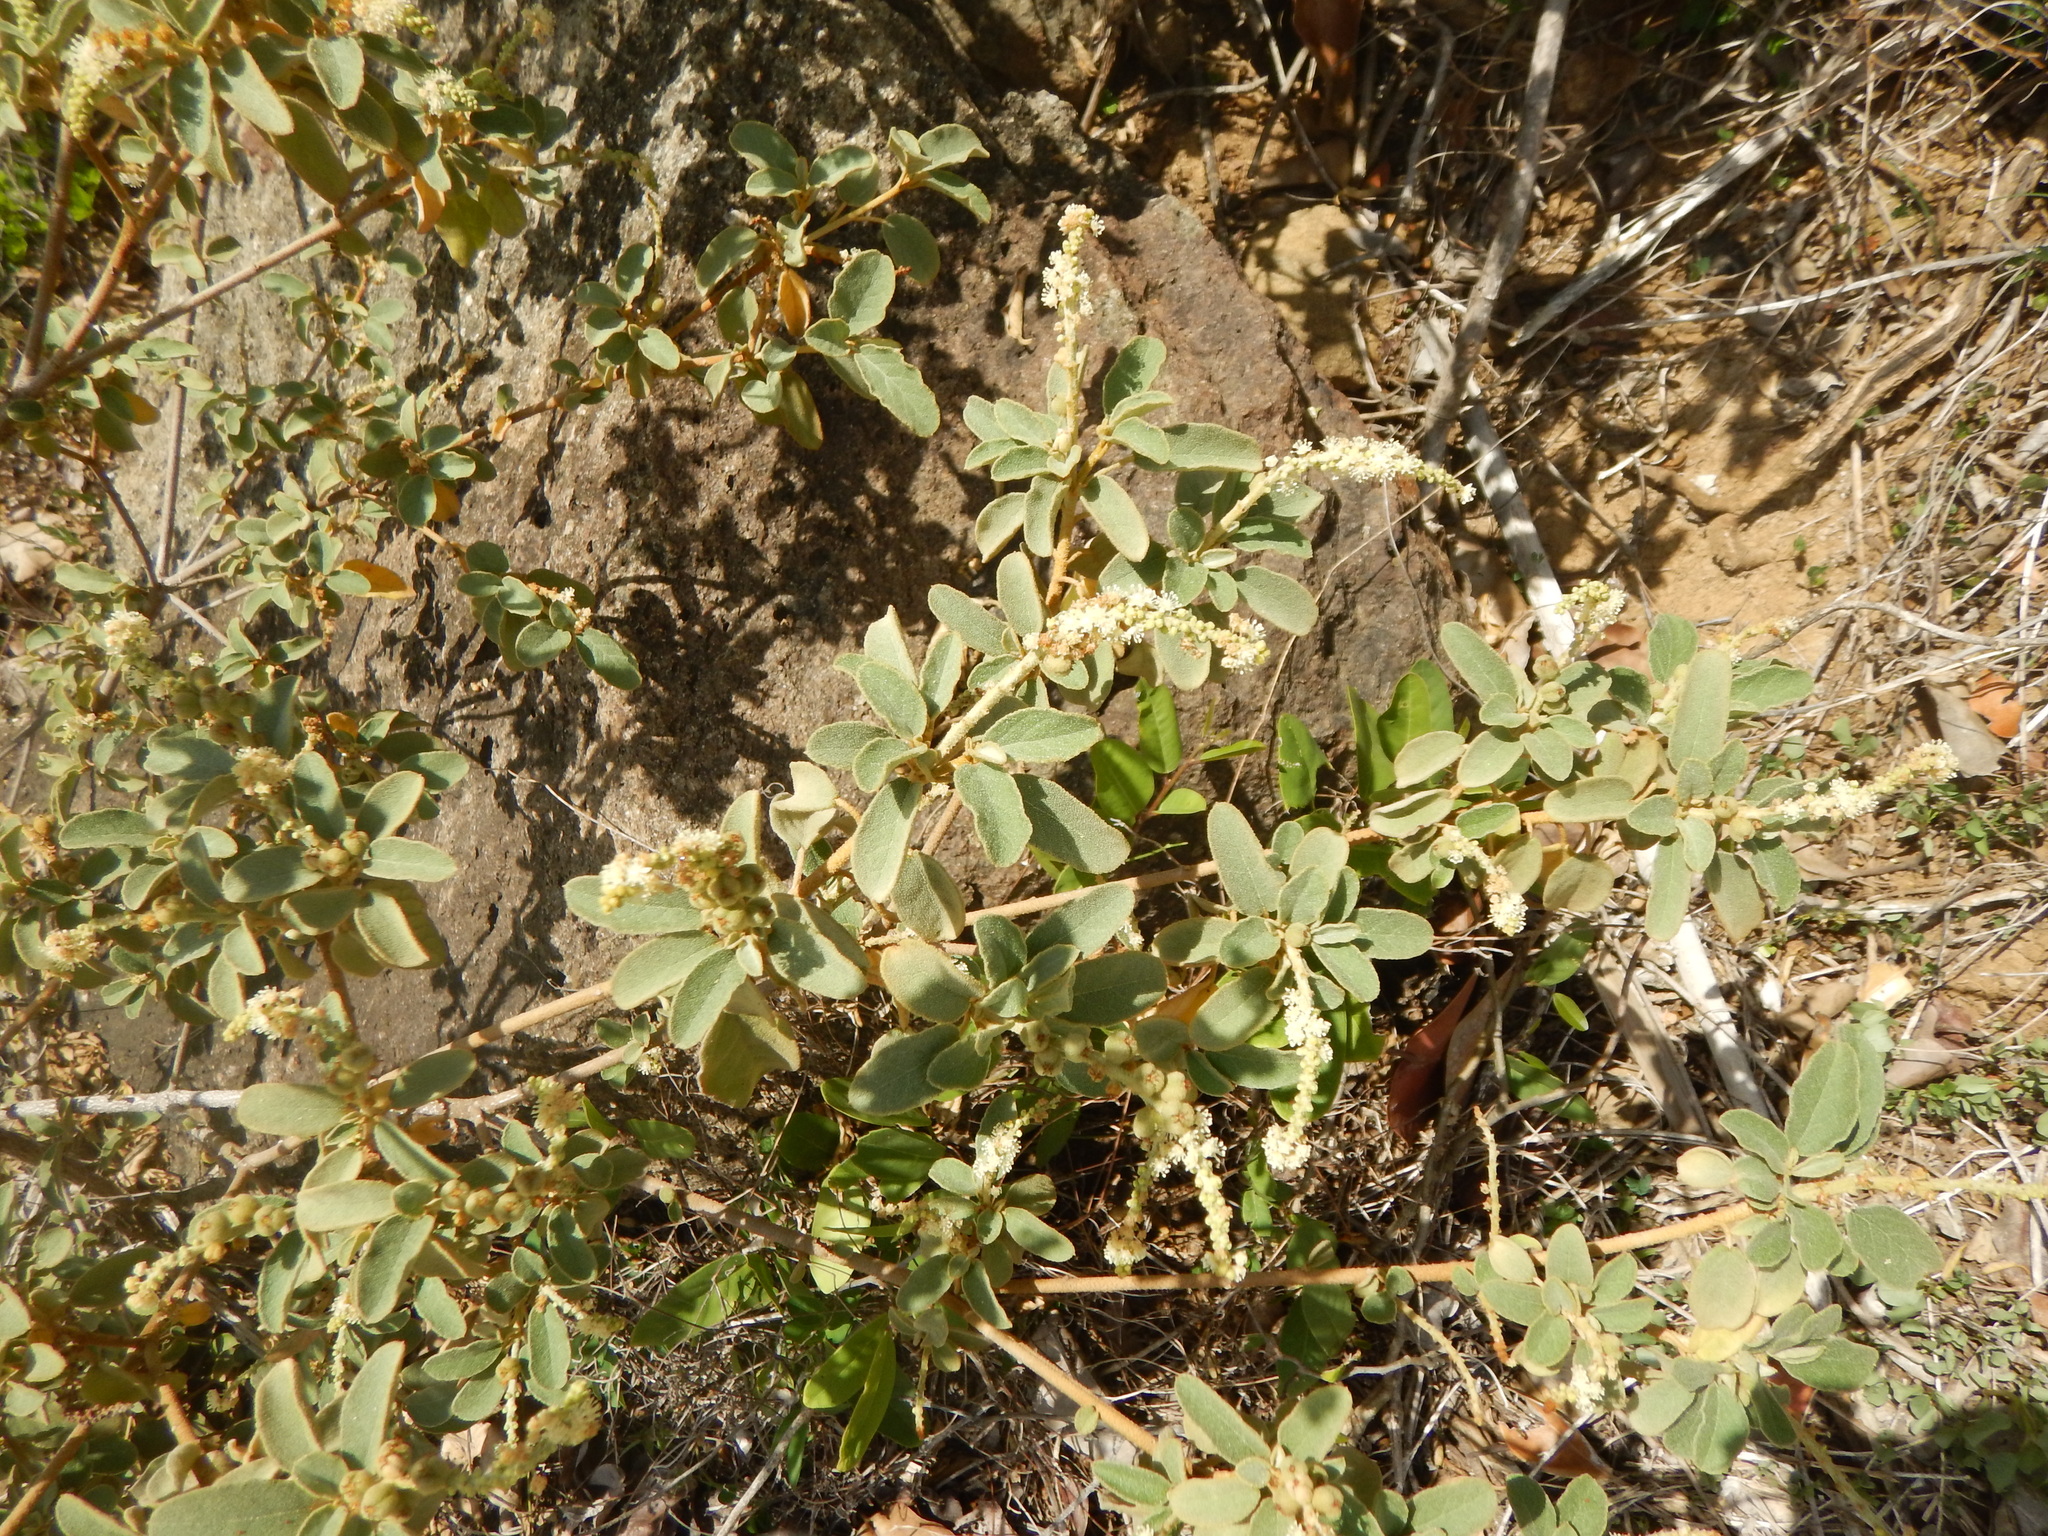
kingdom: Plantae
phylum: Tracheophyta
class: Magnoliopsida
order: Malpighiales
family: Euphorbiaceae
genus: Croton
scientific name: Croton flavens
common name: Yellow balsam
